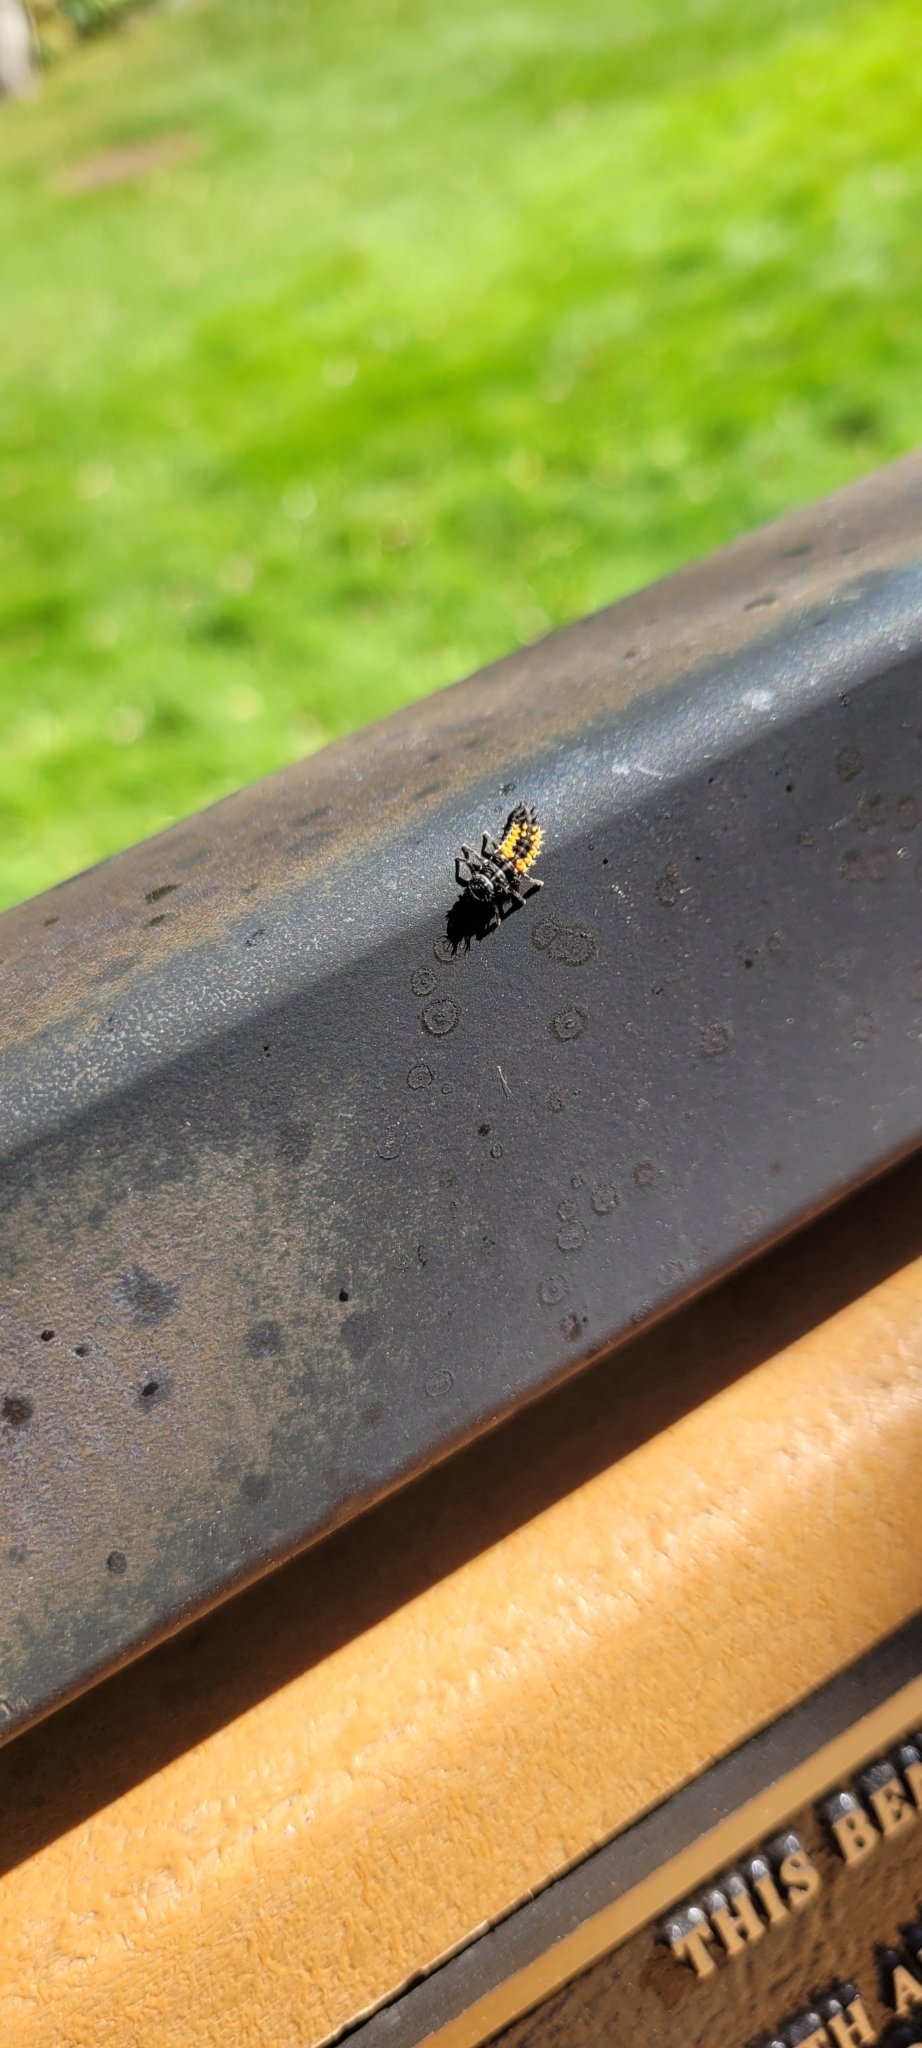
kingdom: Animalia
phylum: Arthropoda
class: Insecta
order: Coleoptera
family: Coccinellidae
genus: Harmonia
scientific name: Harmonia axyridis
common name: Harlequin ladybird
